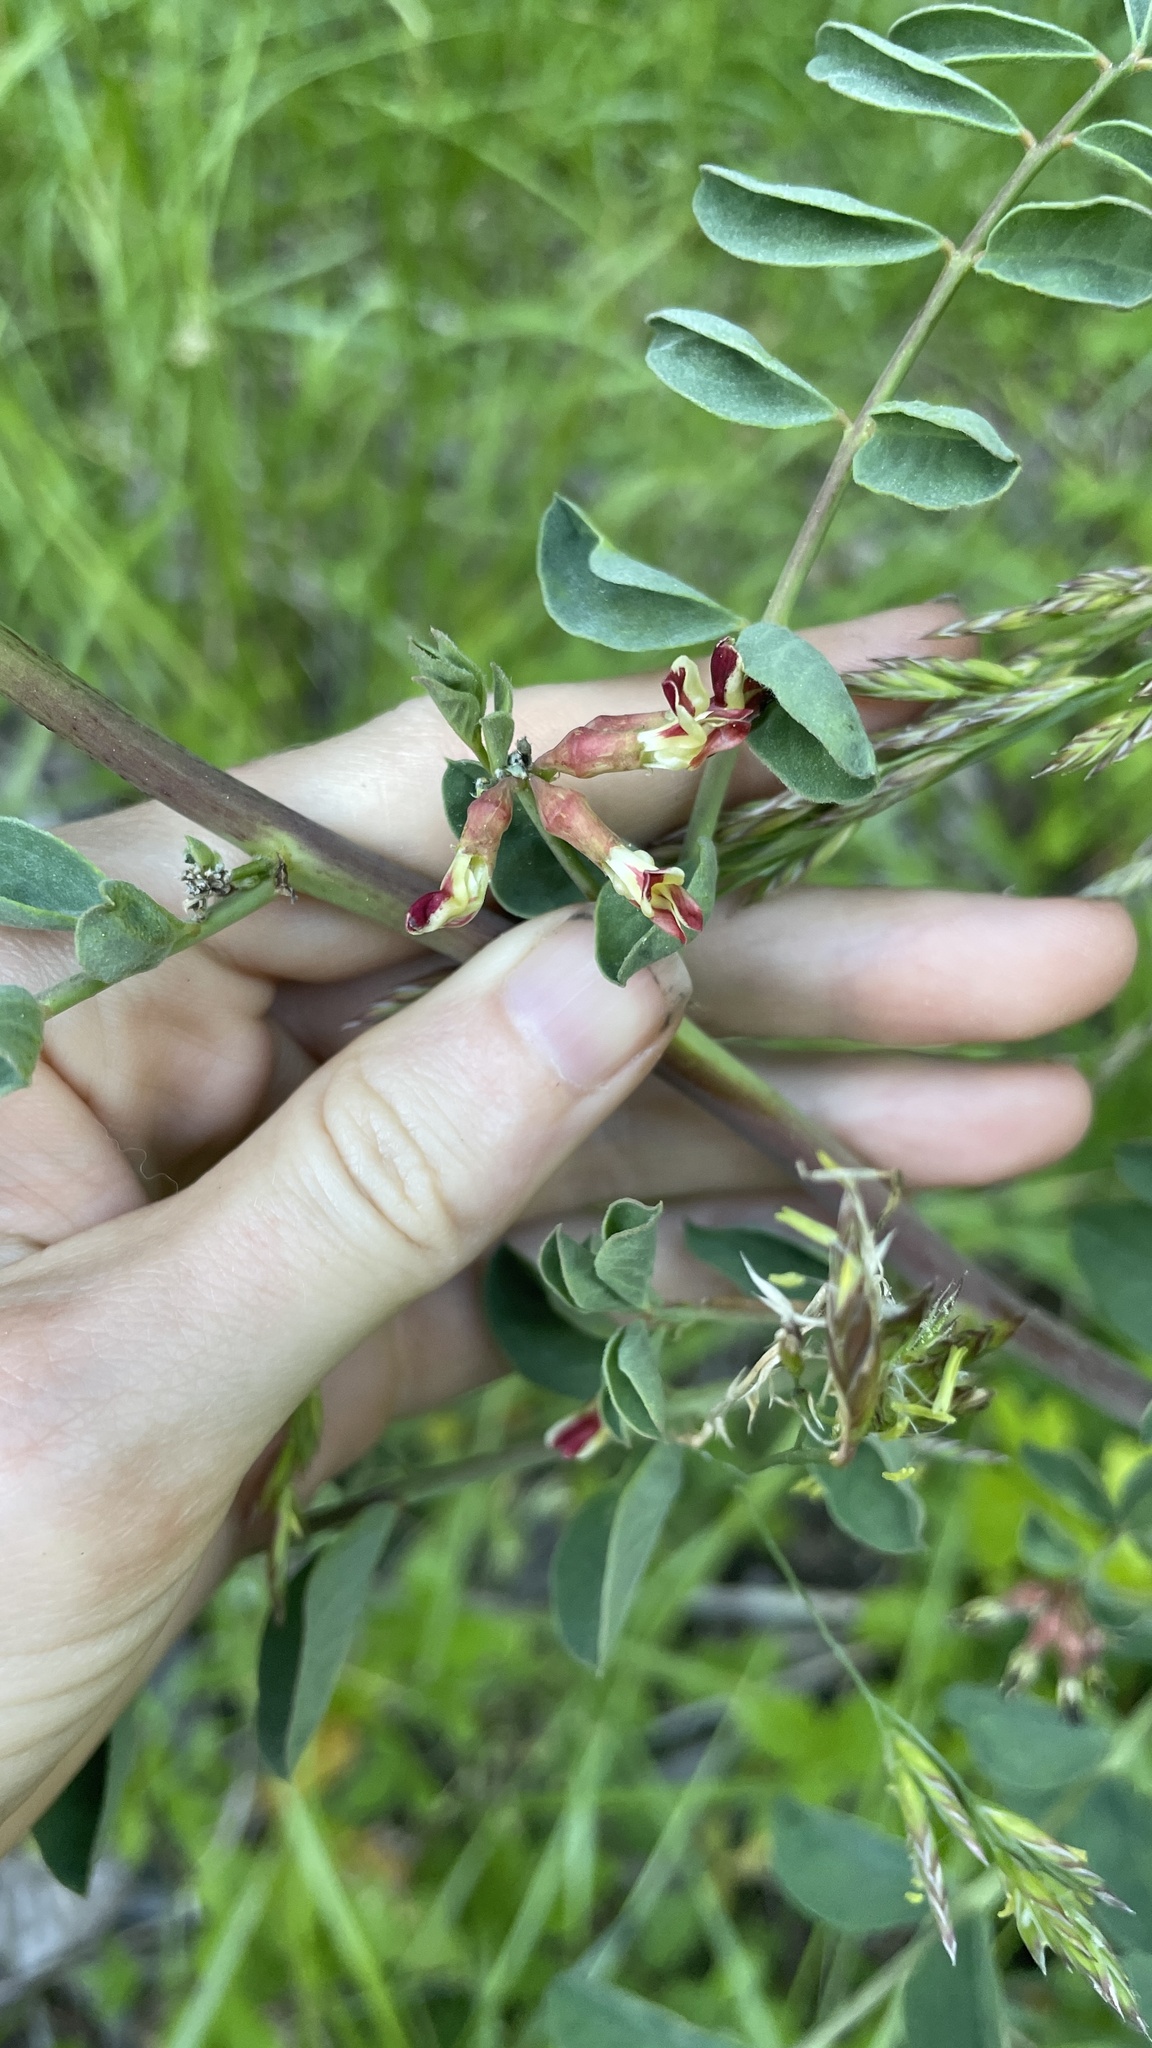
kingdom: Plantae
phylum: Tracheophyta
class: Magnoliopsida
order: Fabales
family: Fabaceae
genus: Hosackia
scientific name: Hosackia crassifolia
